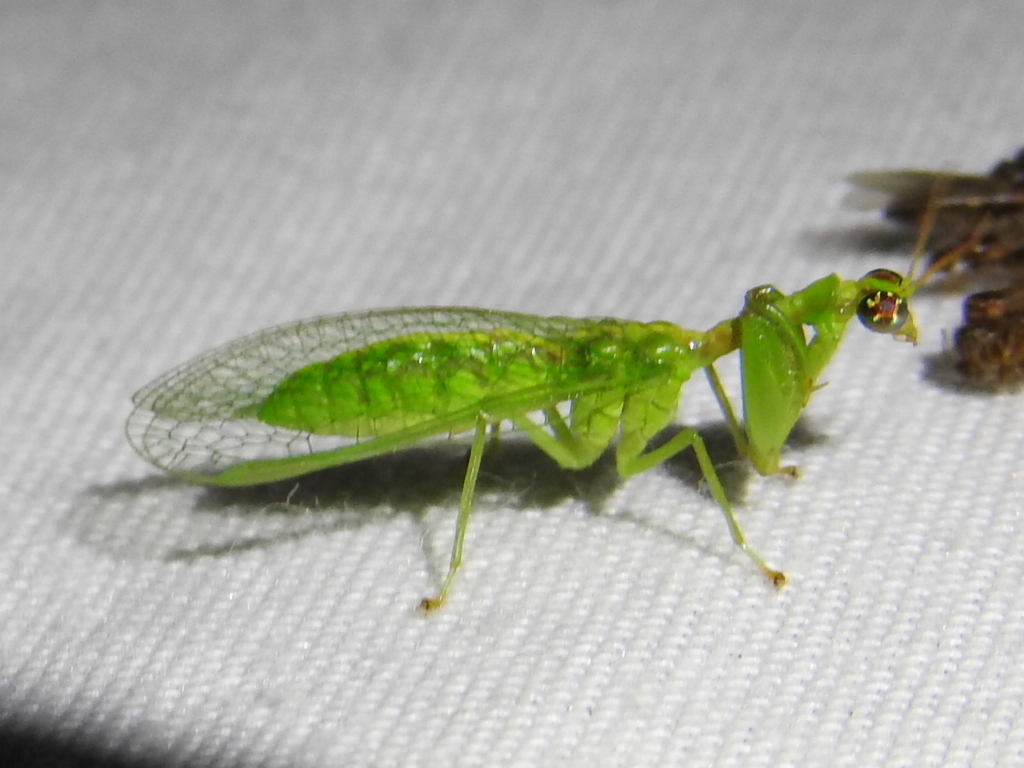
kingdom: Animalia
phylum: Arthropoda
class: Insecta
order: Neuroptera
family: Mantispidae
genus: Zeugomantispa
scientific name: Zeugomantispa minuta
